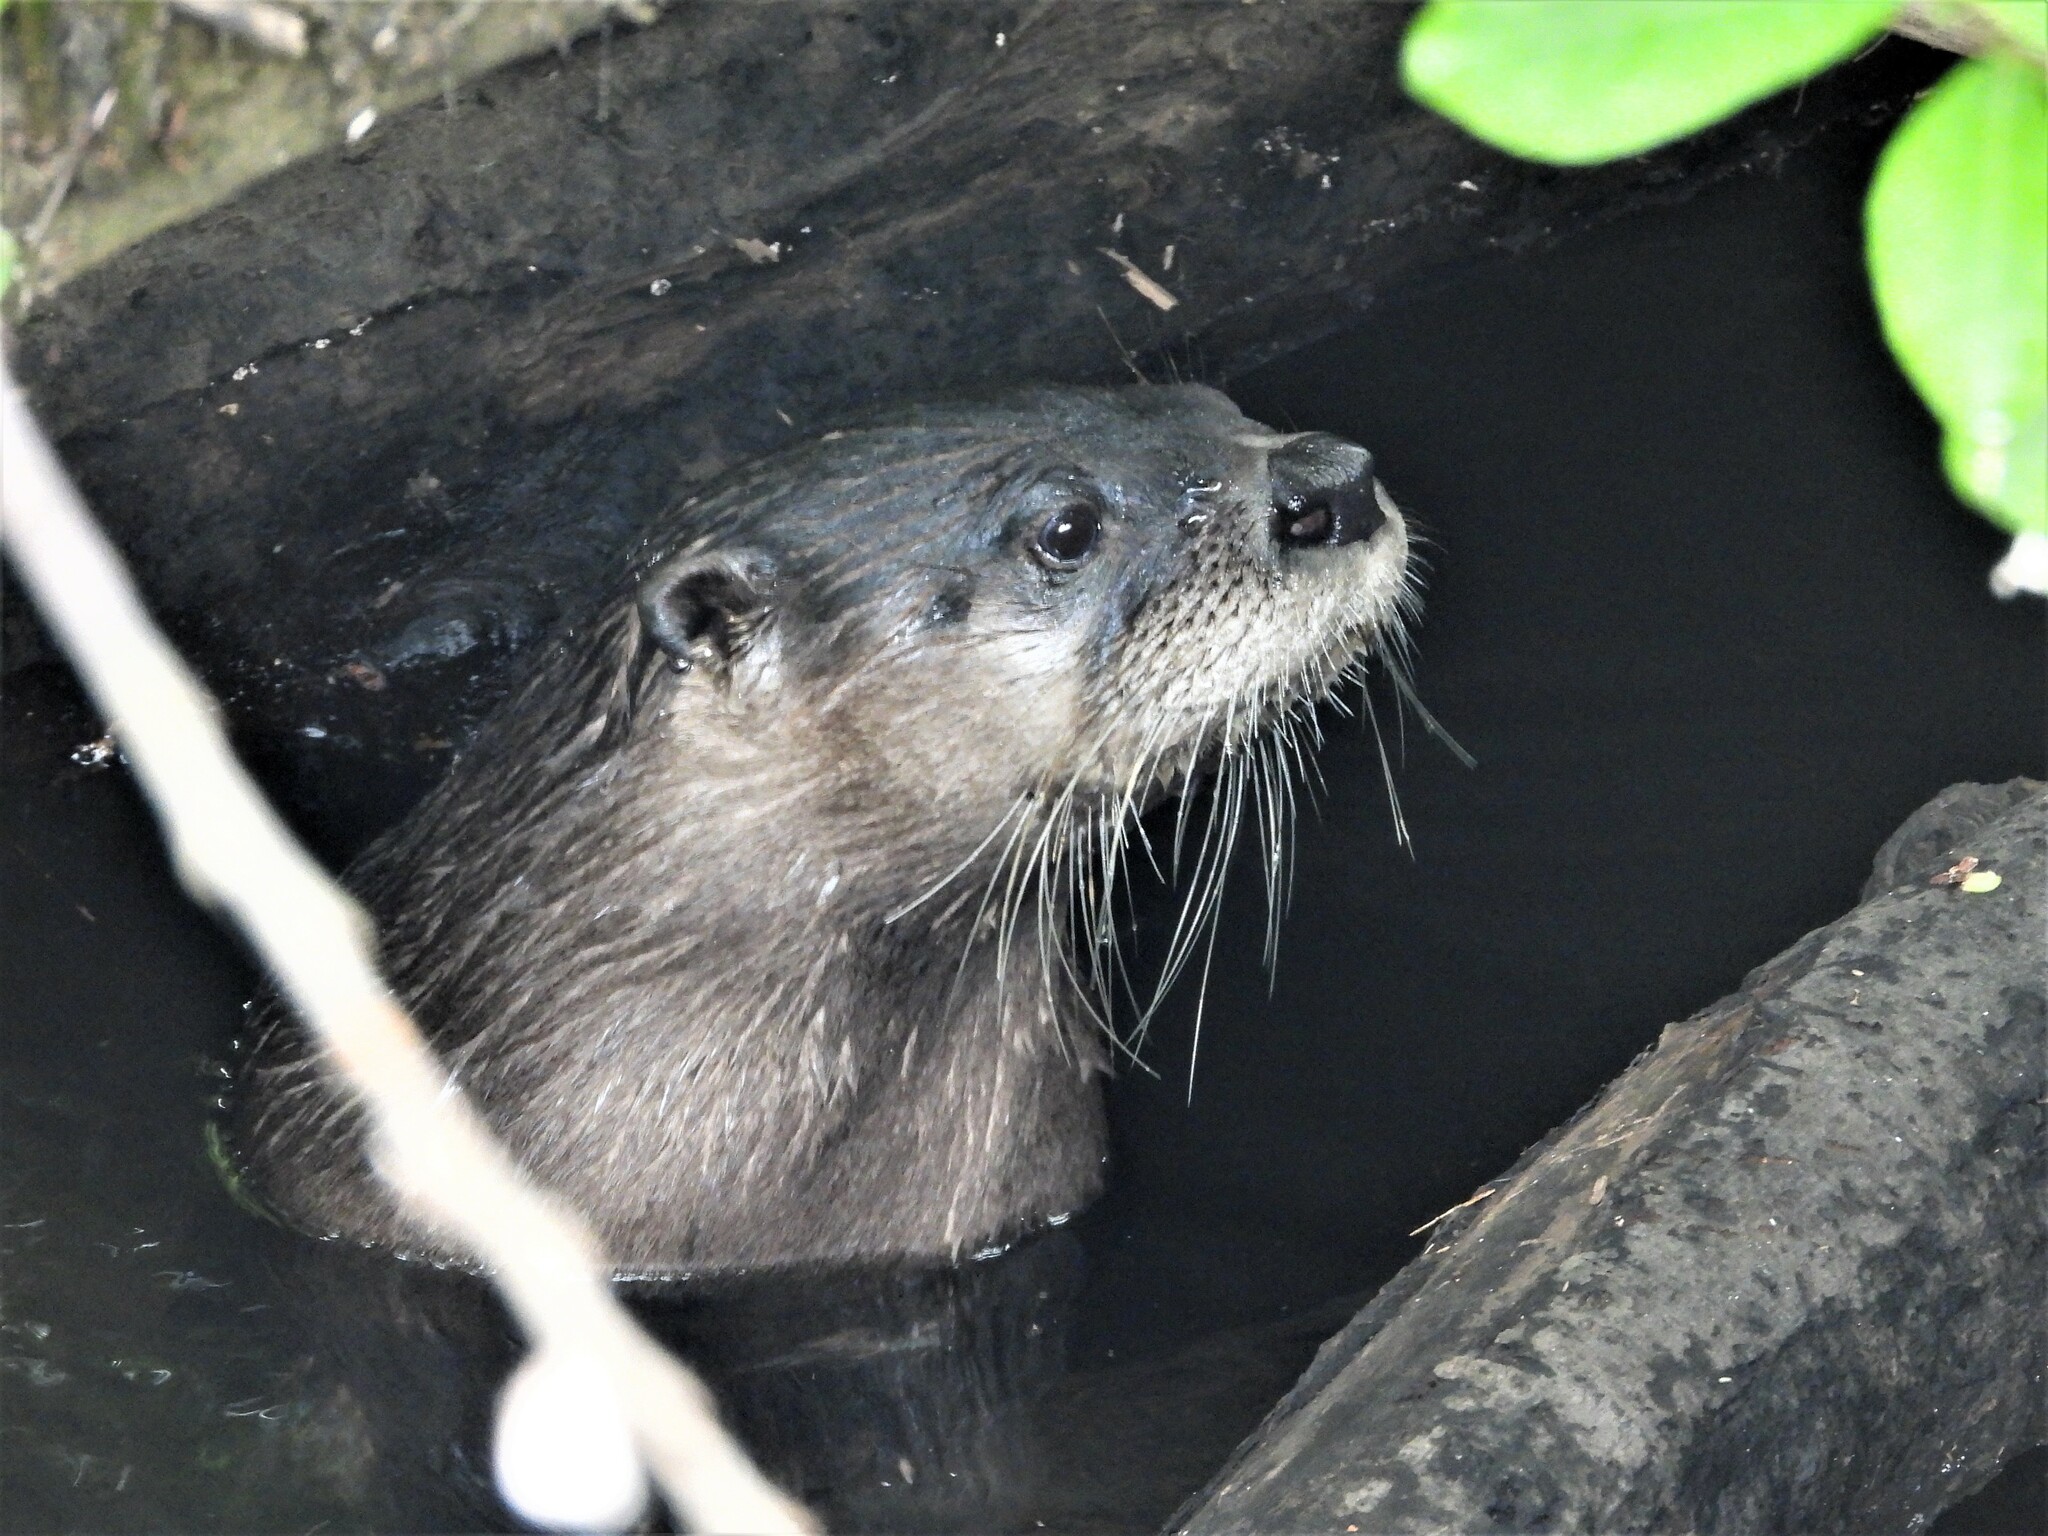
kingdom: Animalia
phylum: Chordata
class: Mammalia
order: Carnivora
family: Mustelidae
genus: Lontra
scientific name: Lontra canadensis
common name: North american river otter
